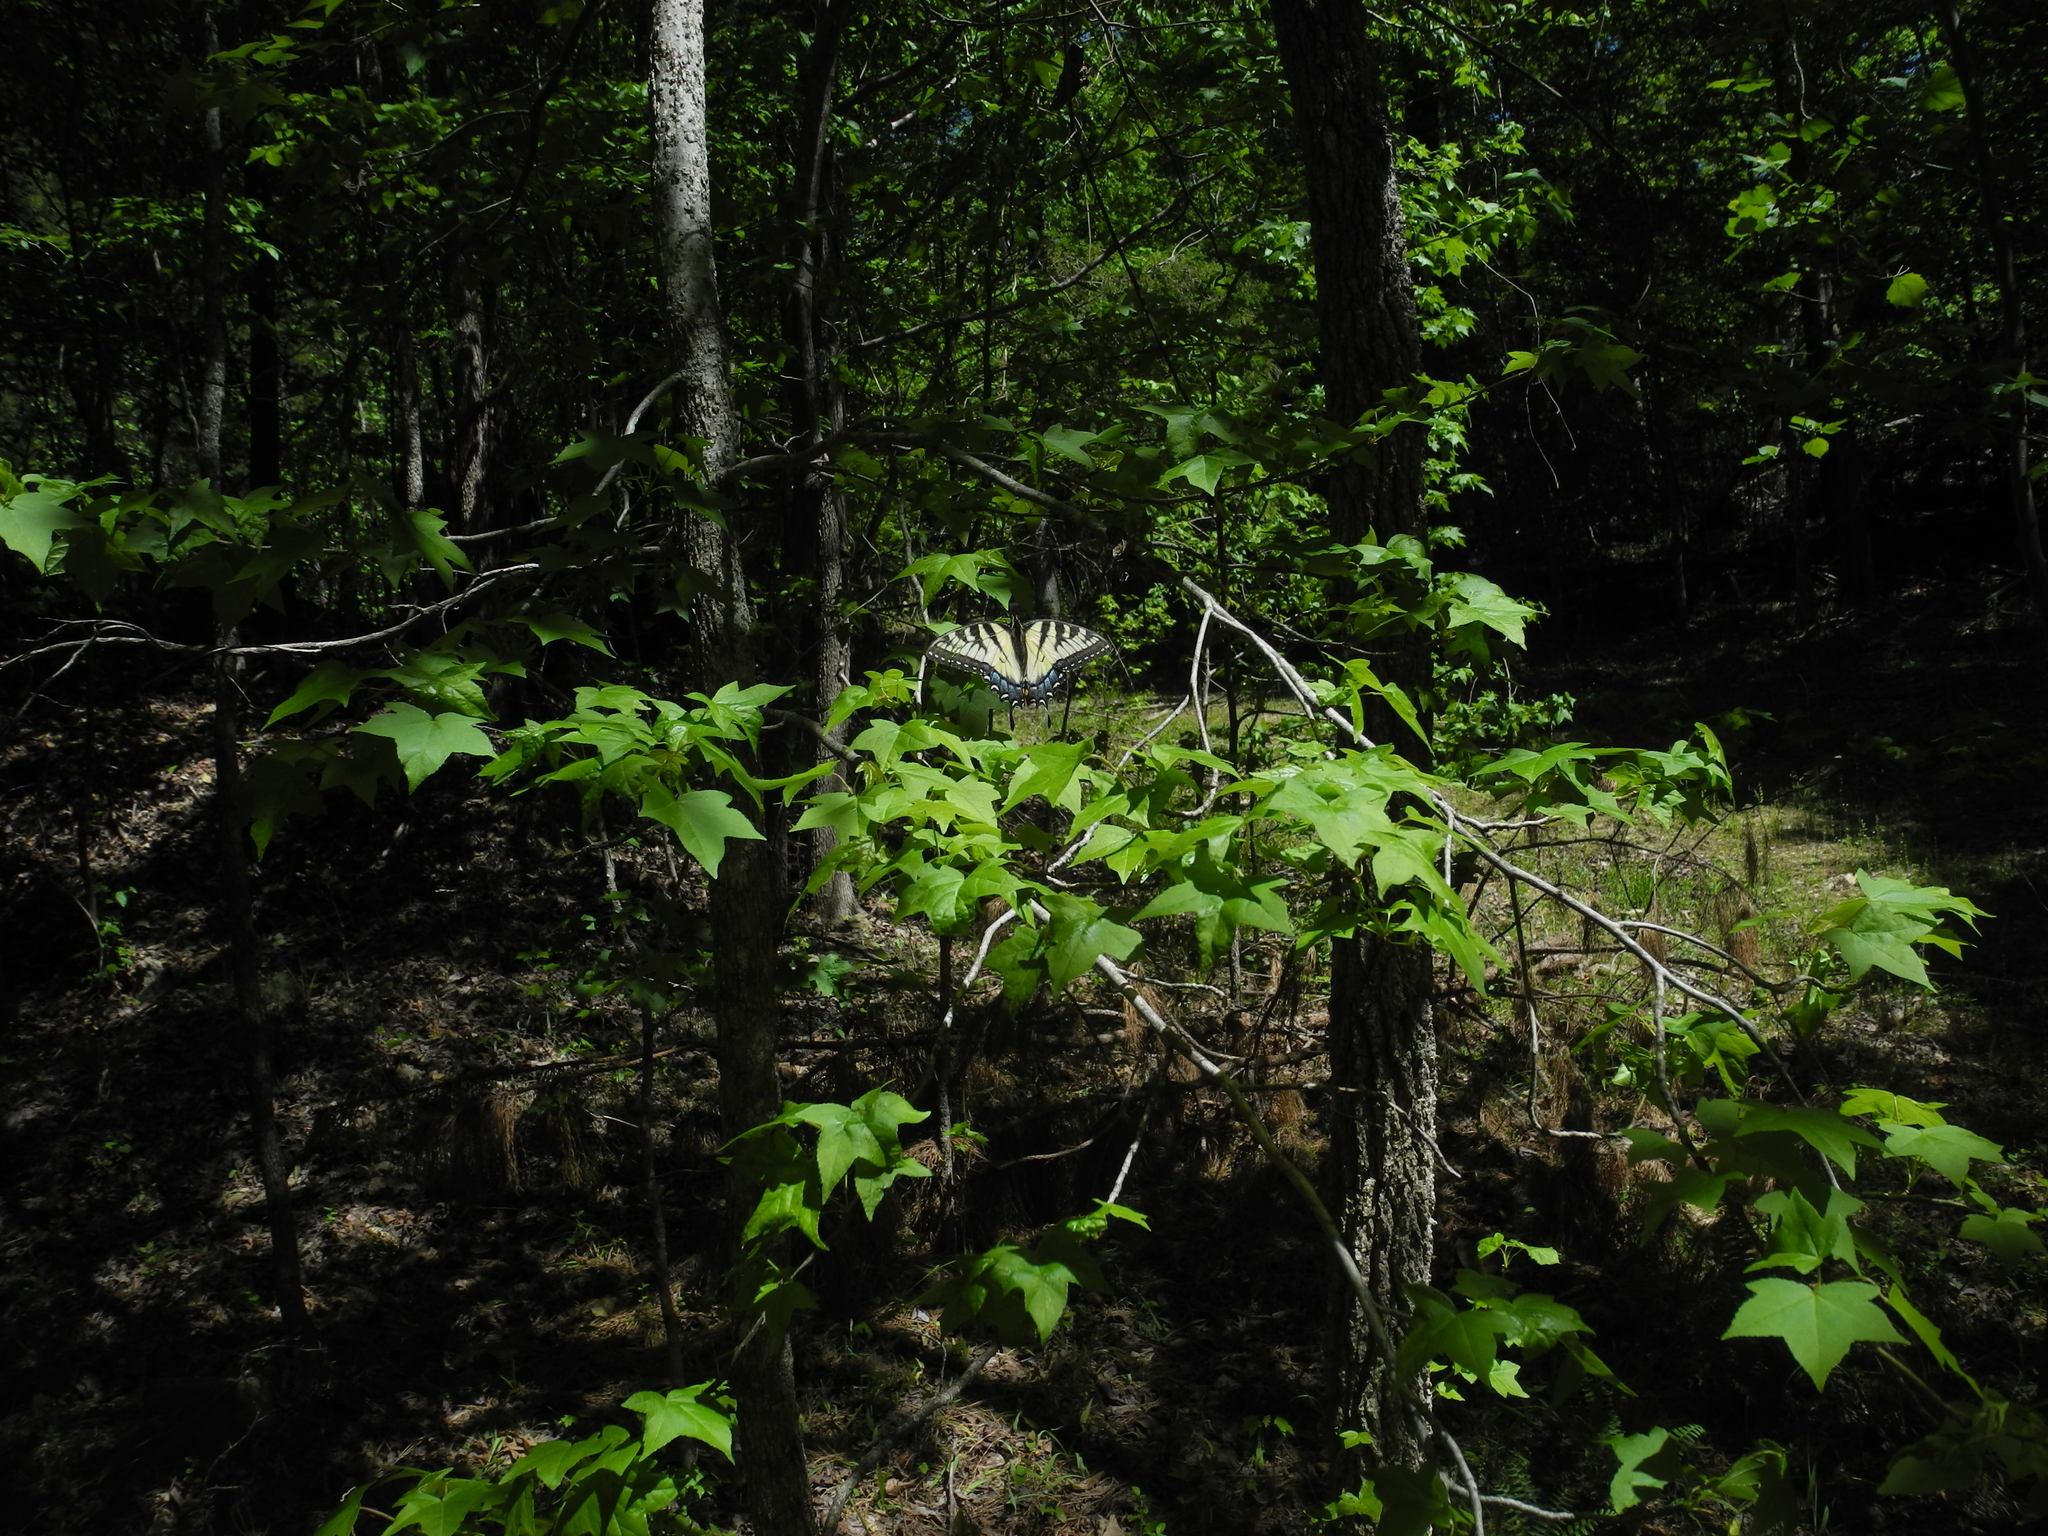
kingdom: Animalia
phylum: Arthropoda
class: Insecta
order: Lepidoptera
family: Papilionidae
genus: Papilio
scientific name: Papilio glaucus
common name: Tiger swallowtail
